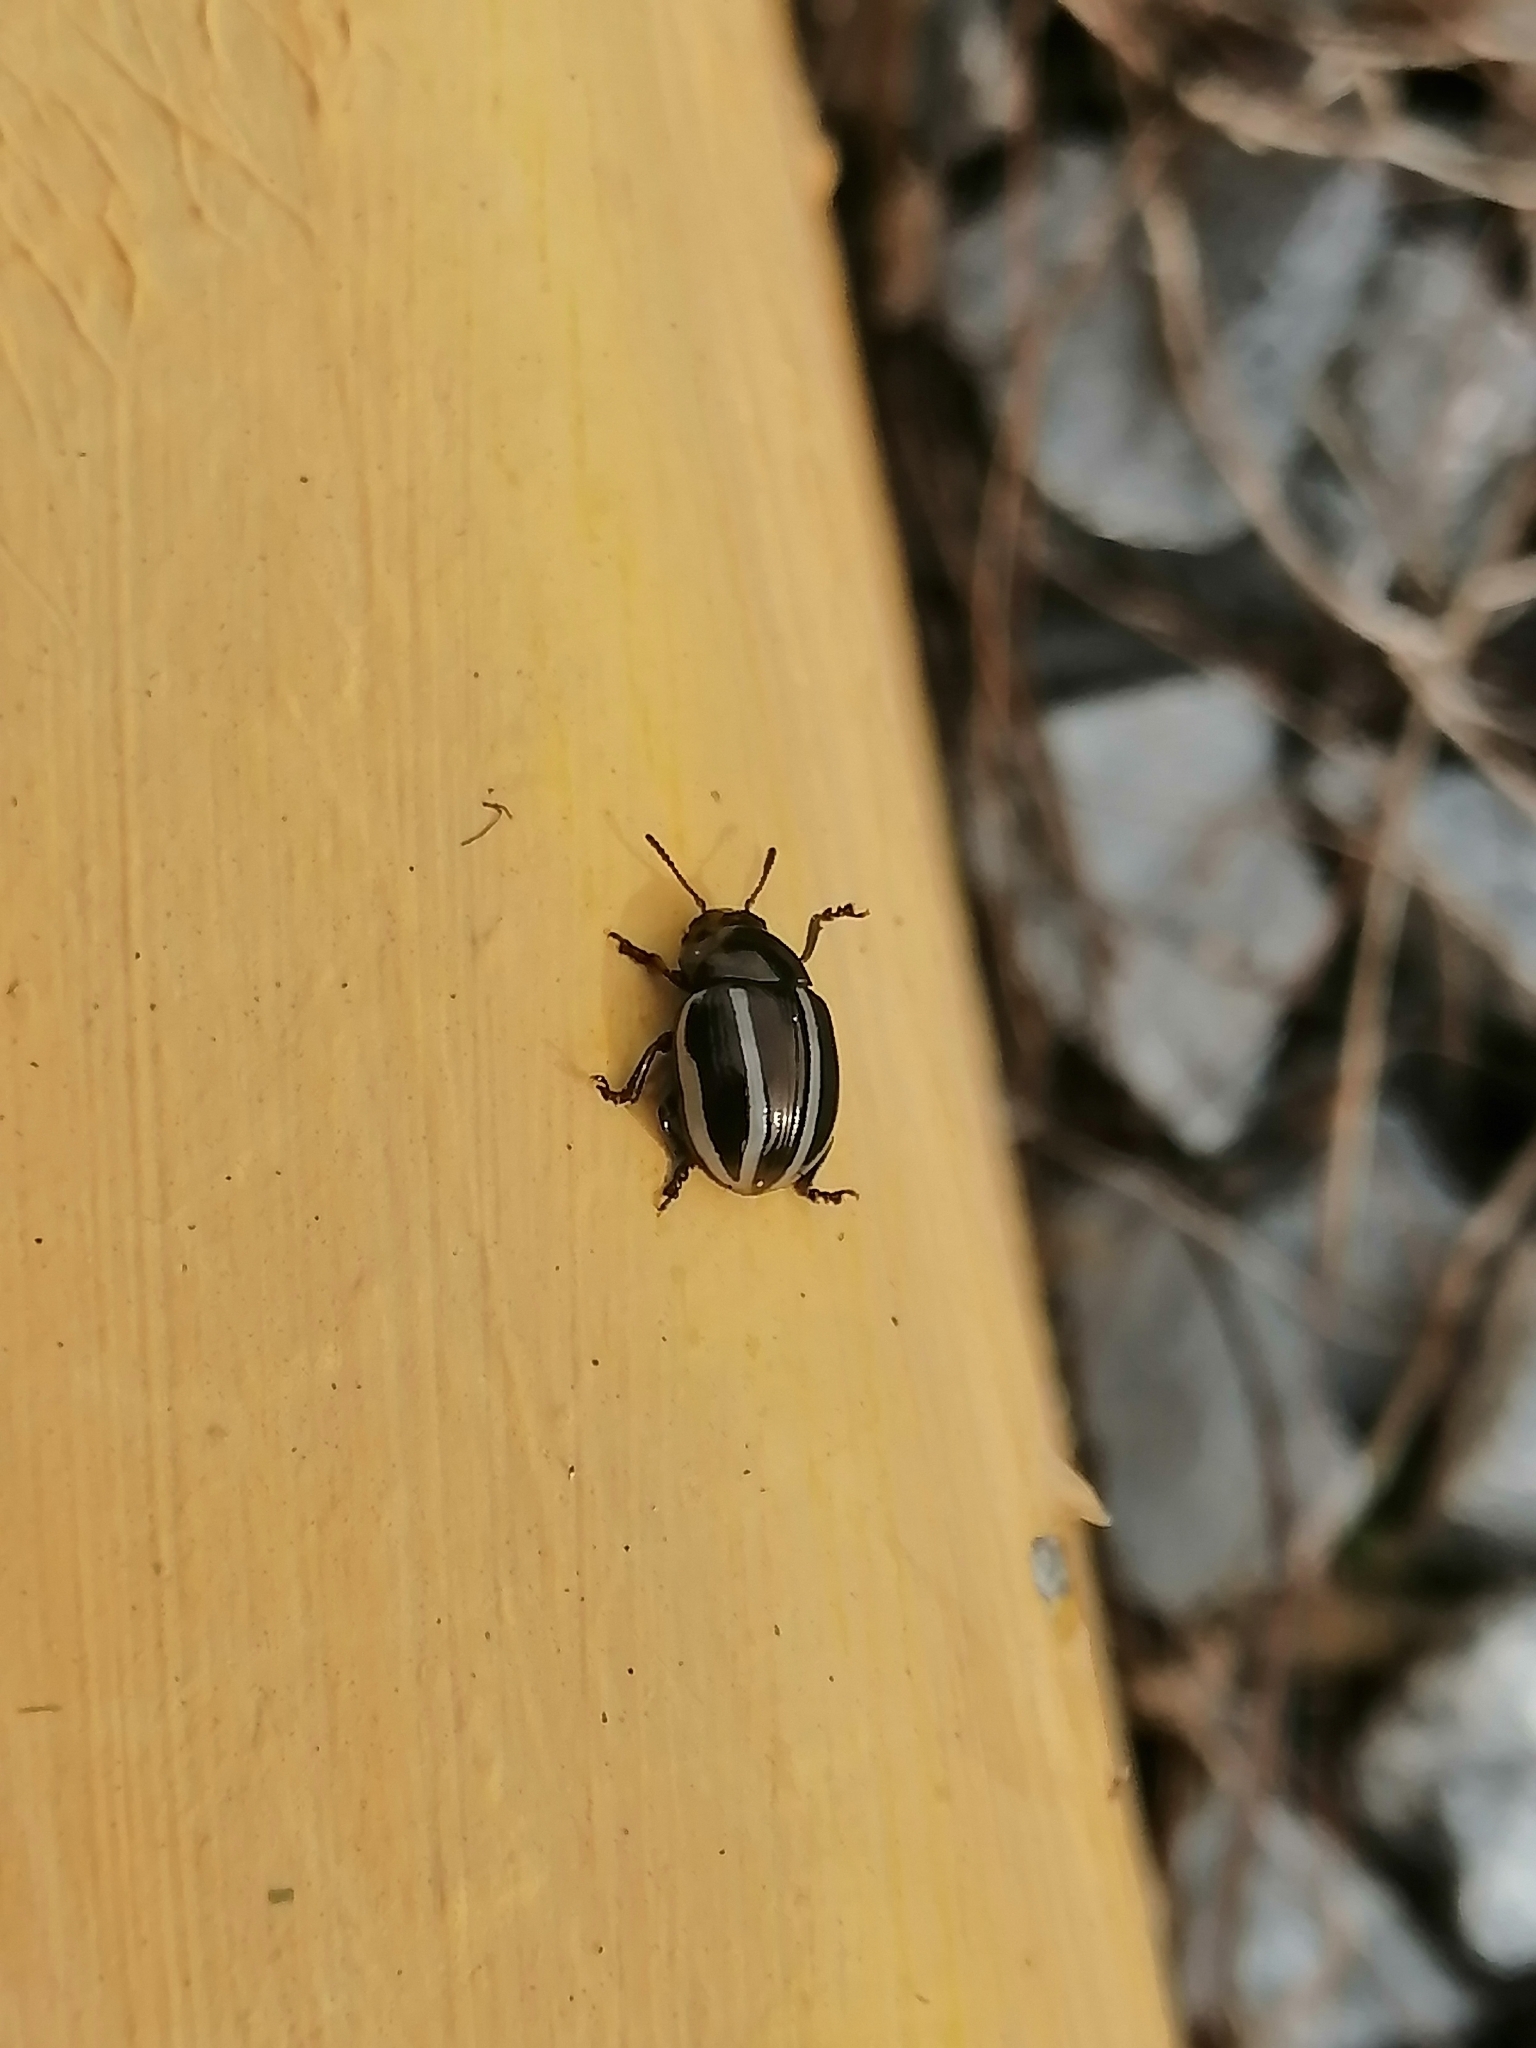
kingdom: Animalia
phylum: Arthropoda
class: Insecta
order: Coleoptera
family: Chrysomelidae
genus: Leptinotarsa
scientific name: Leptinotarsa tlascalana
